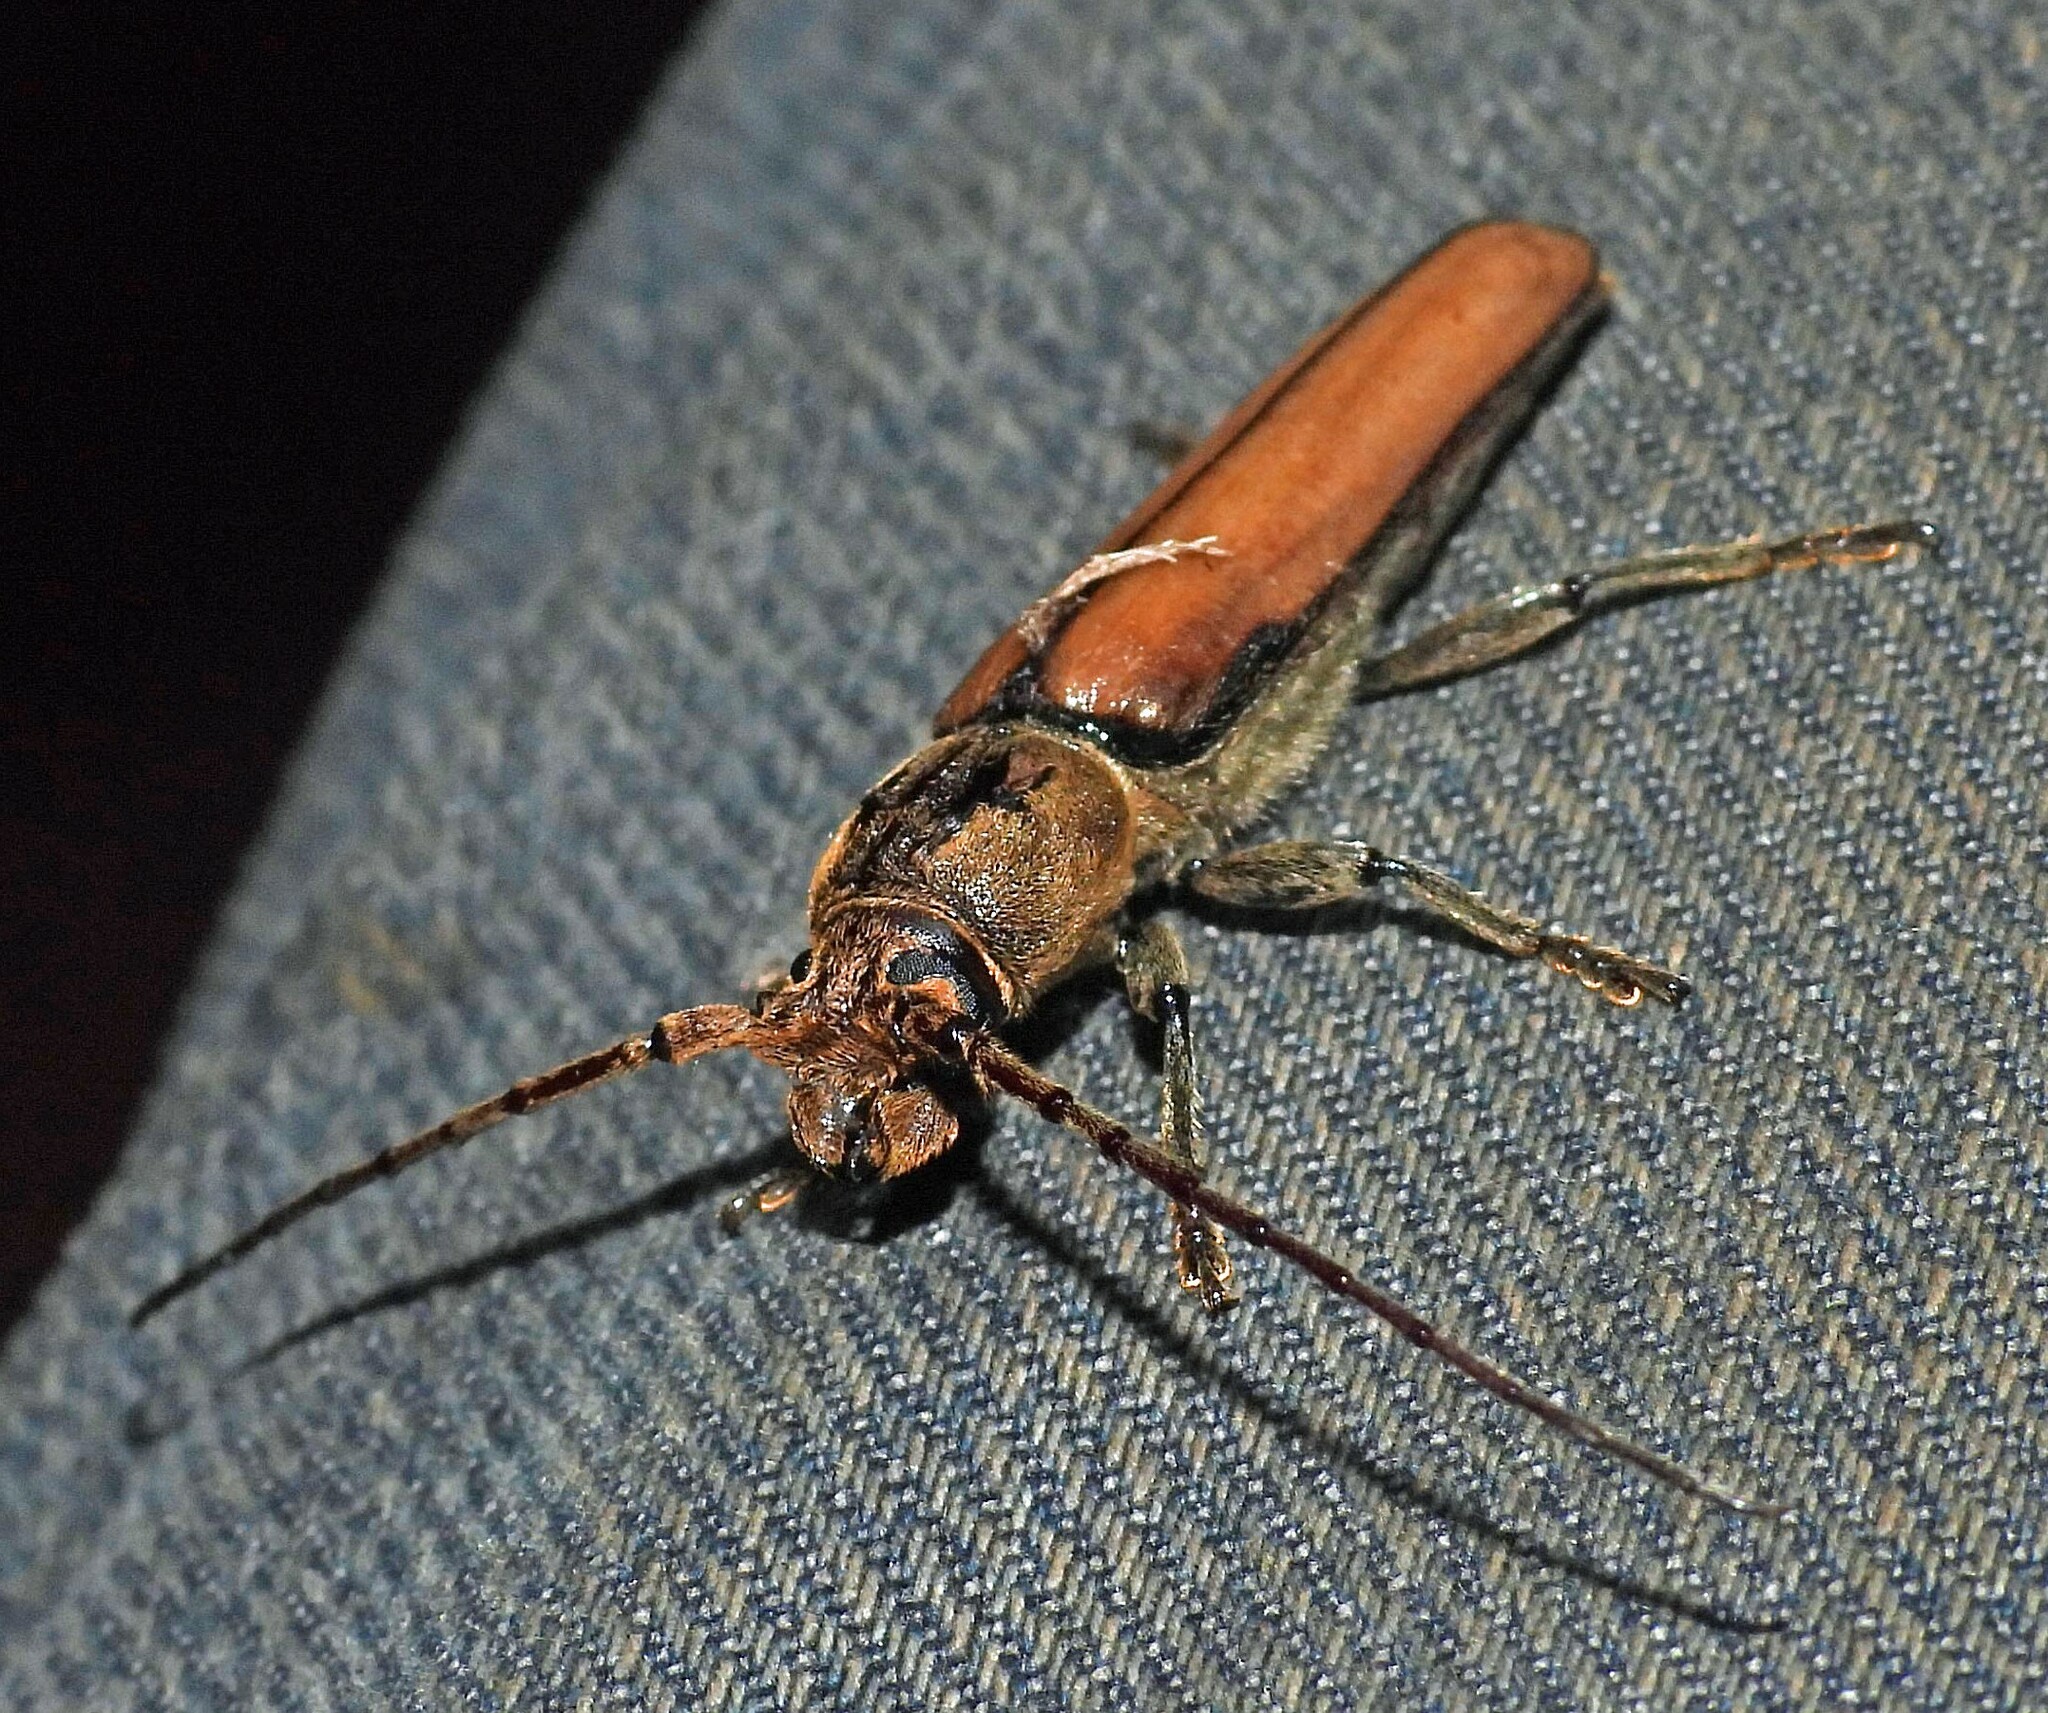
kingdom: Animalia
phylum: Arthropoda
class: Insecta
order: Coleoptera
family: Cerambycidae
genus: Diploschema
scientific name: Diploschema rotundicolle
